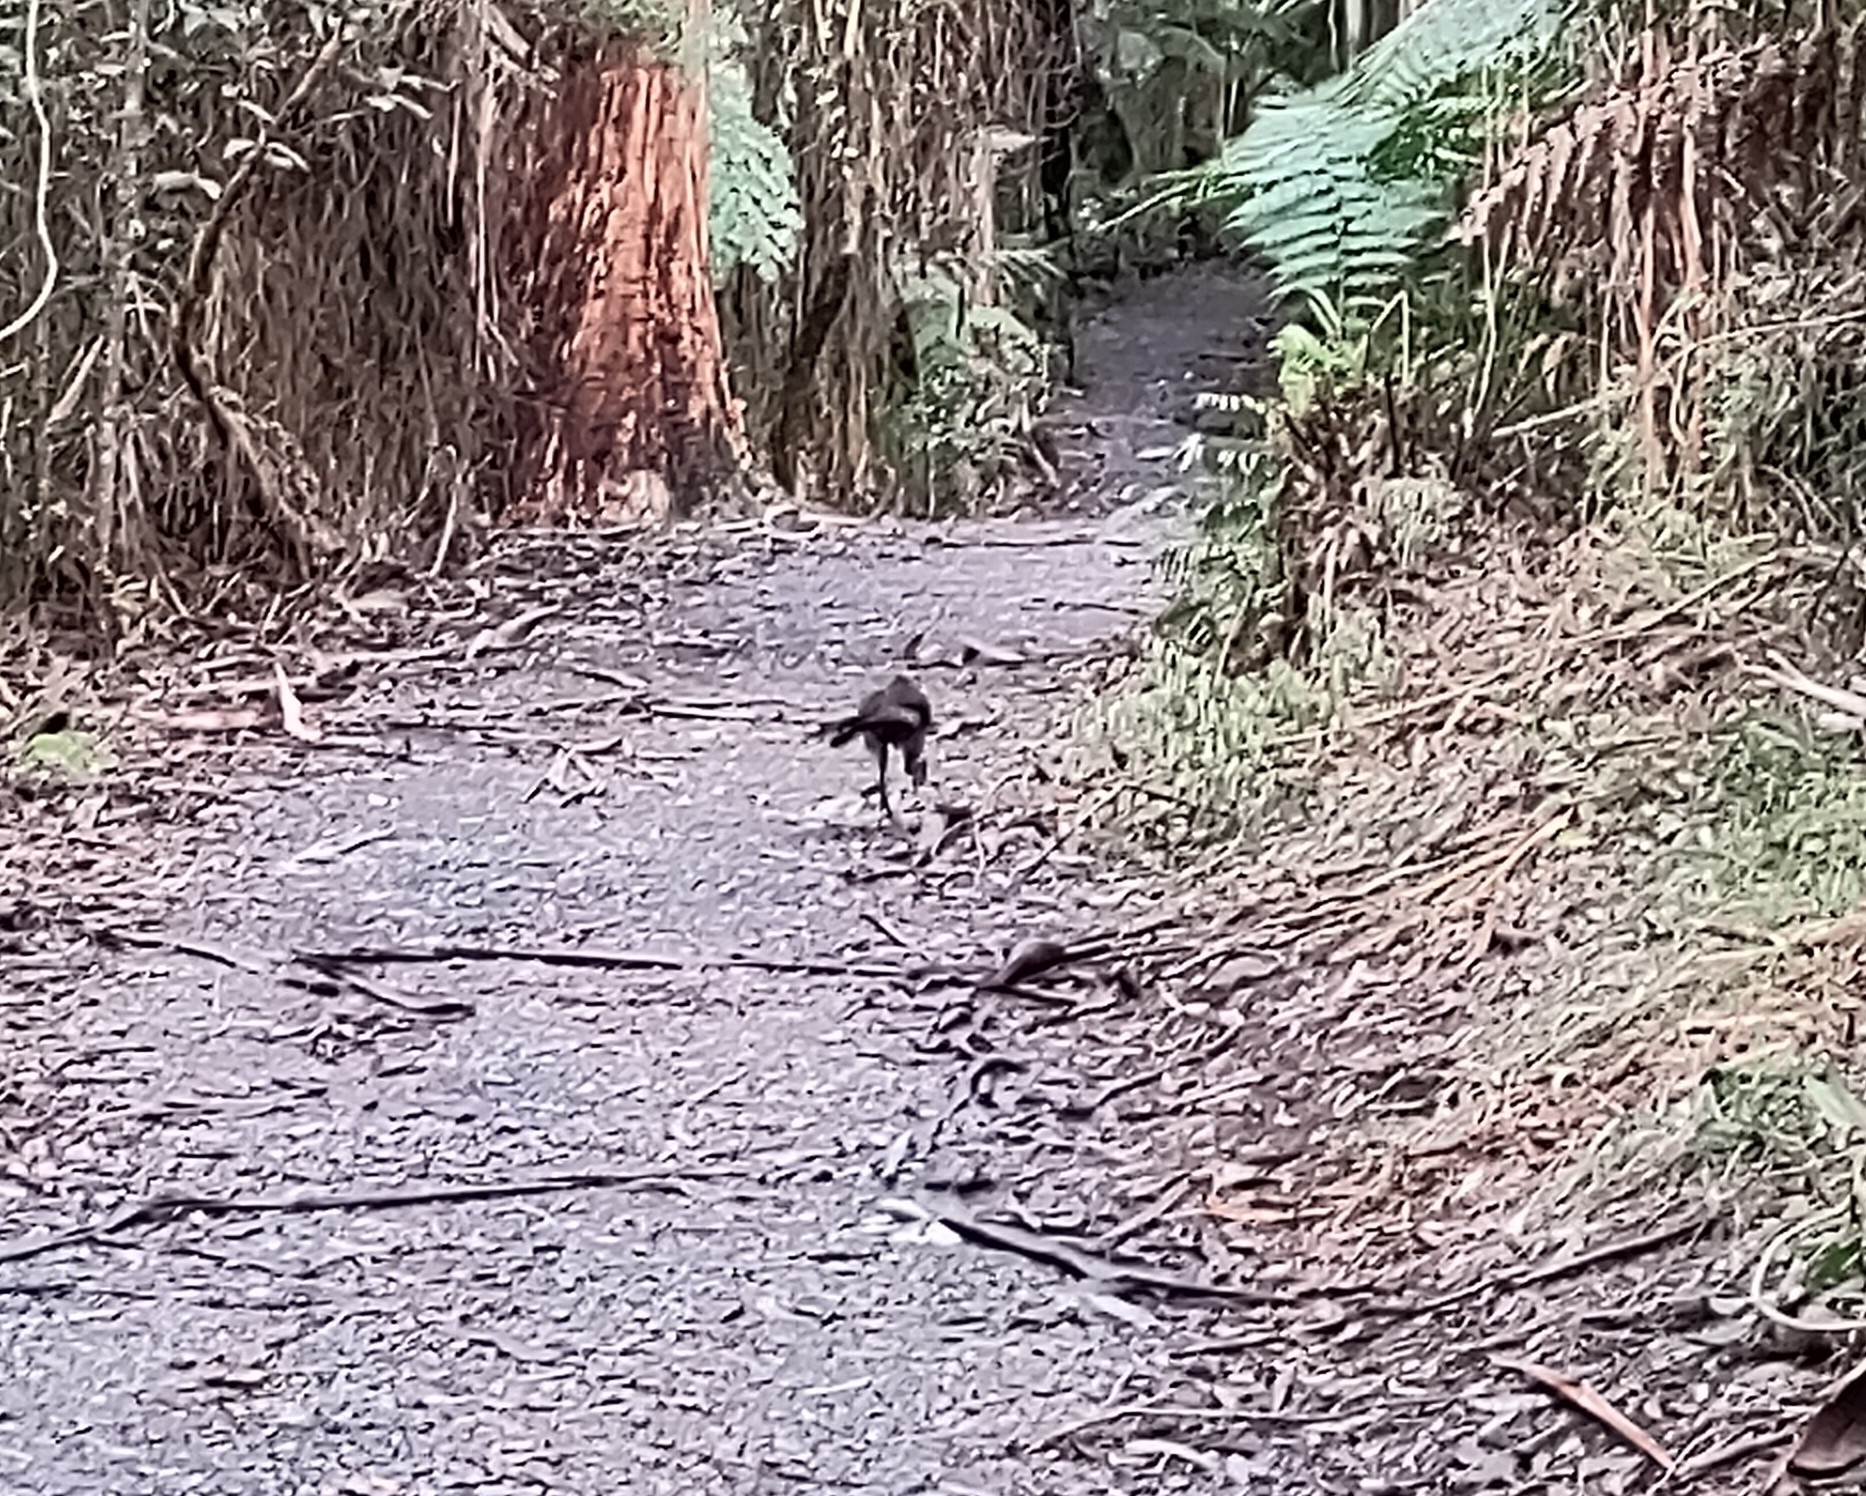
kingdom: Animalia
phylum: Chordata
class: Aves
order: Passeriformes
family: Menuridae
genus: Menura
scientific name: Menura novaehollandiae
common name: Superb lyrebird
